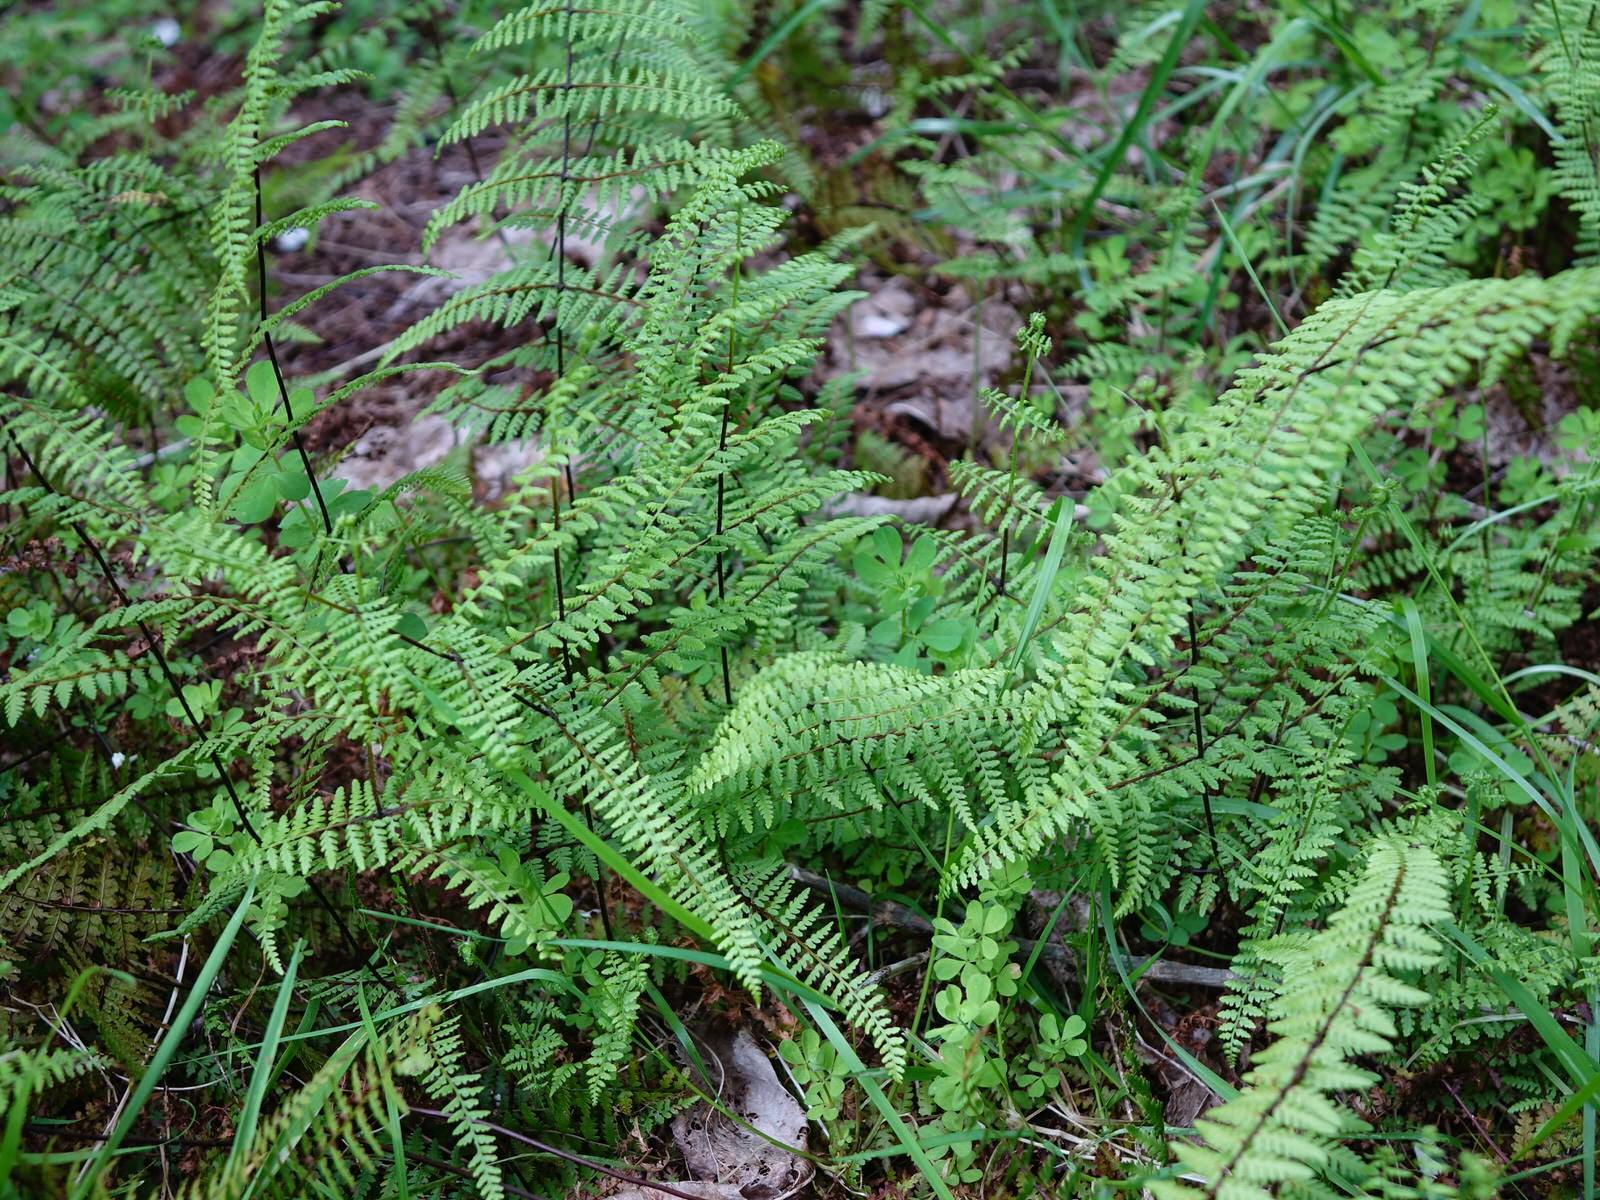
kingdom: Plantae
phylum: Tracheophyta
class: Polypodiopsida
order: Polypodiales
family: Dennstaedtiaceae
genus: Hiya
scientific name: Hiya distans
